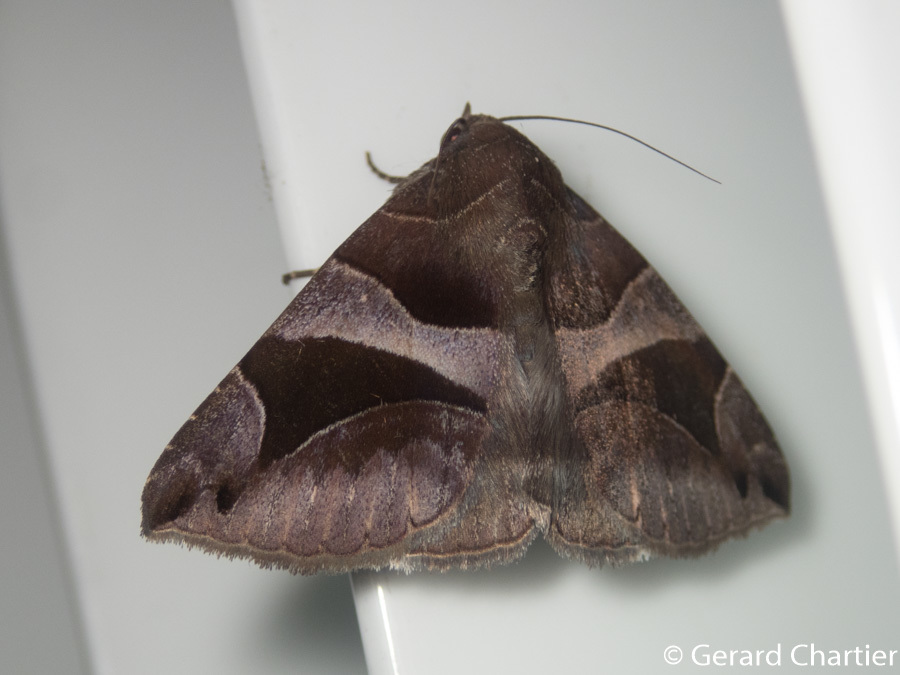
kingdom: Animalia
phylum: Arthropoda
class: Insecta
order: Lepidoptera
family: Erebidae
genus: Bastilla
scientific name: Bastilla arcuata
